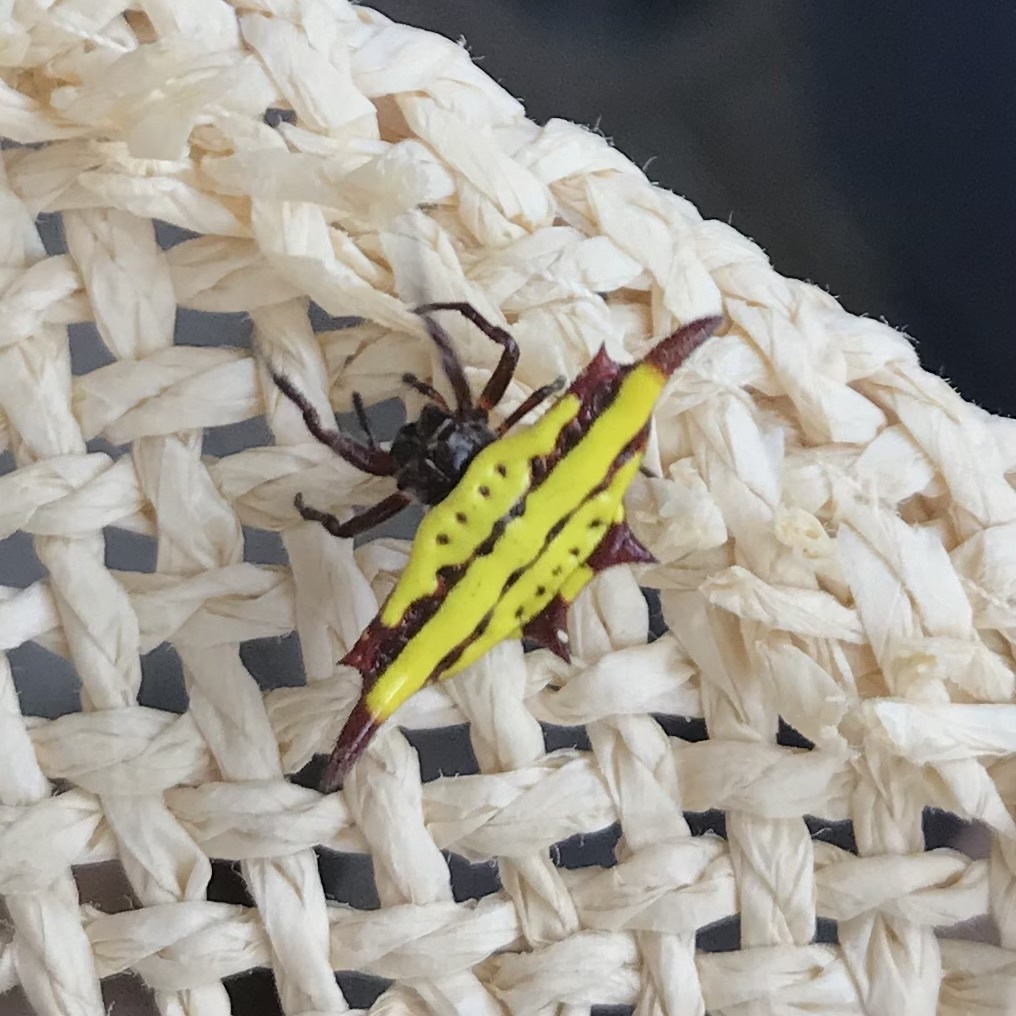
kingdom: Animalia
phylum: Arthropoda
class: Arachnida
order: Araneae
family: Araneidae
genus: Gasteracantha
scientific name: Gasteracantha diadesmia
